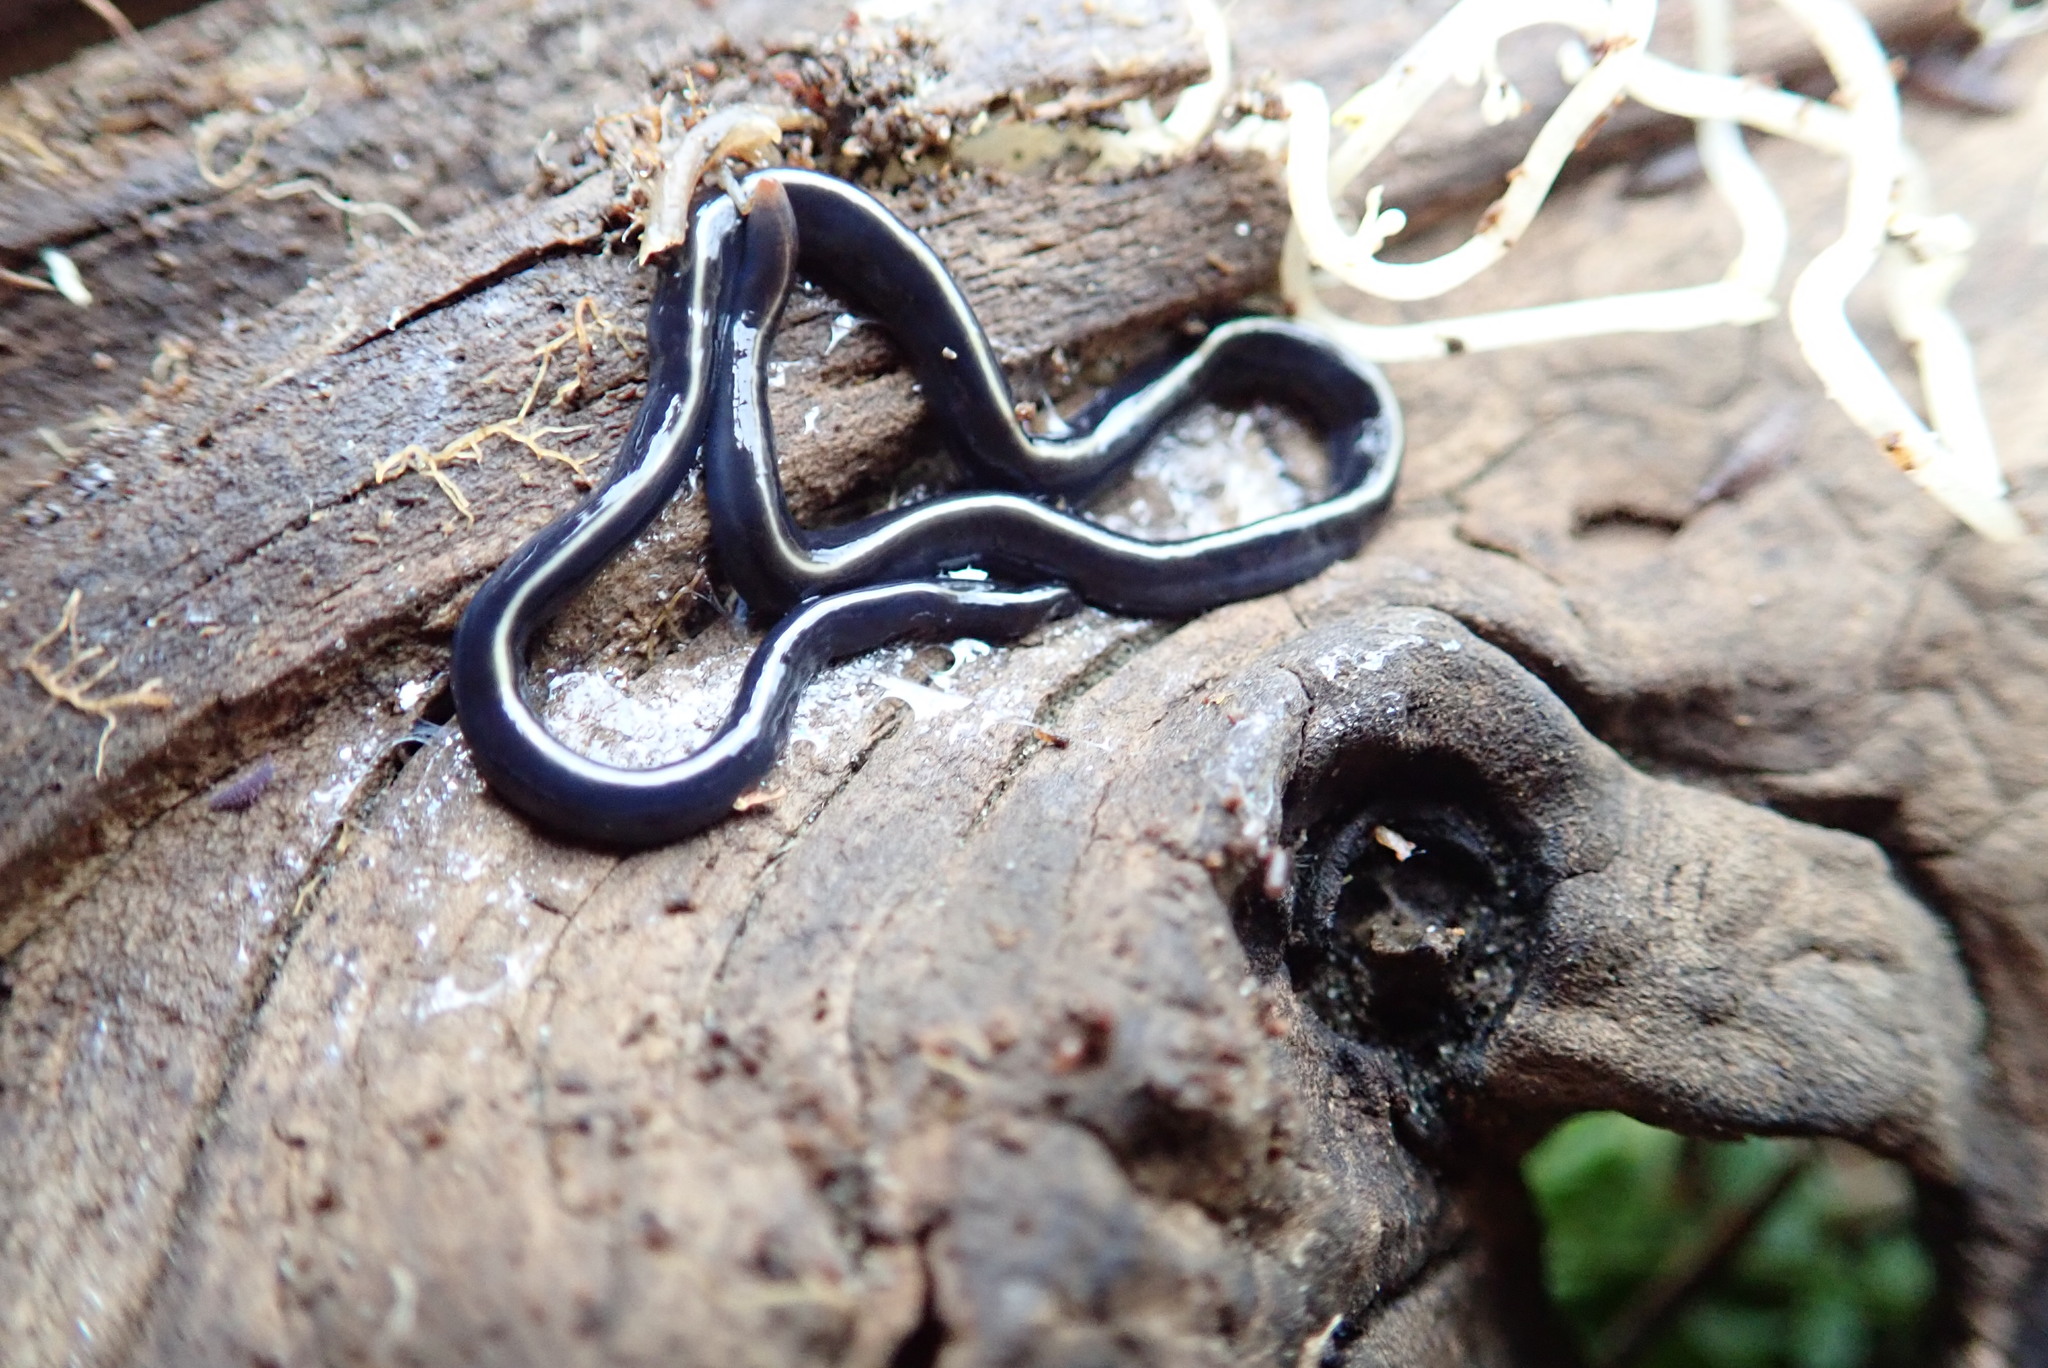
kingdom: Animalia
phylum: Platyhelminthes
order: Tricladida
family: Geoplanidae
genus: Caenoplana
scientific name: Caenoplana coerulea
